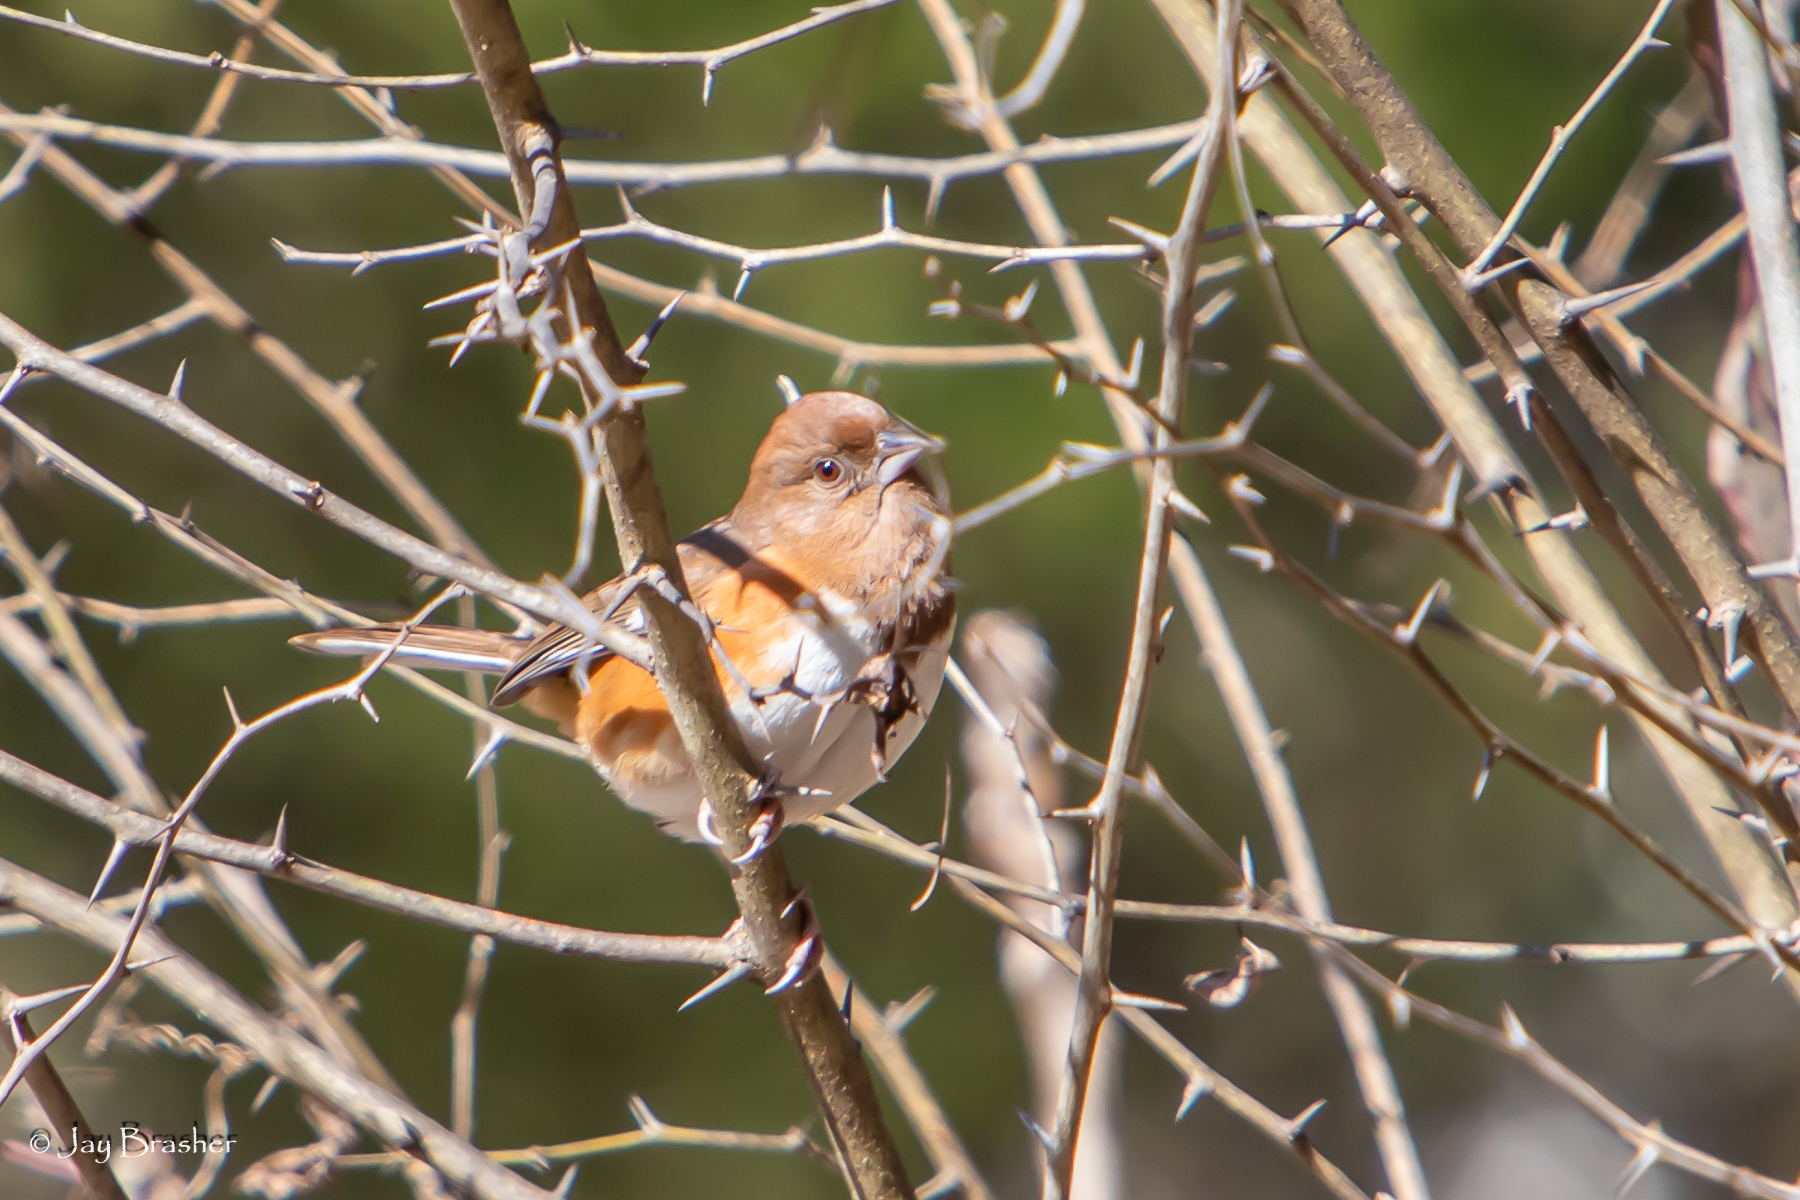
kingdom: Animalia
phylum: Chordata
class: Aves
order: Passeriformes
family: Passerellidae
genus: Pipilo
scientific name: Pipilo erythrophthalmus
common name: Eastern towhee
